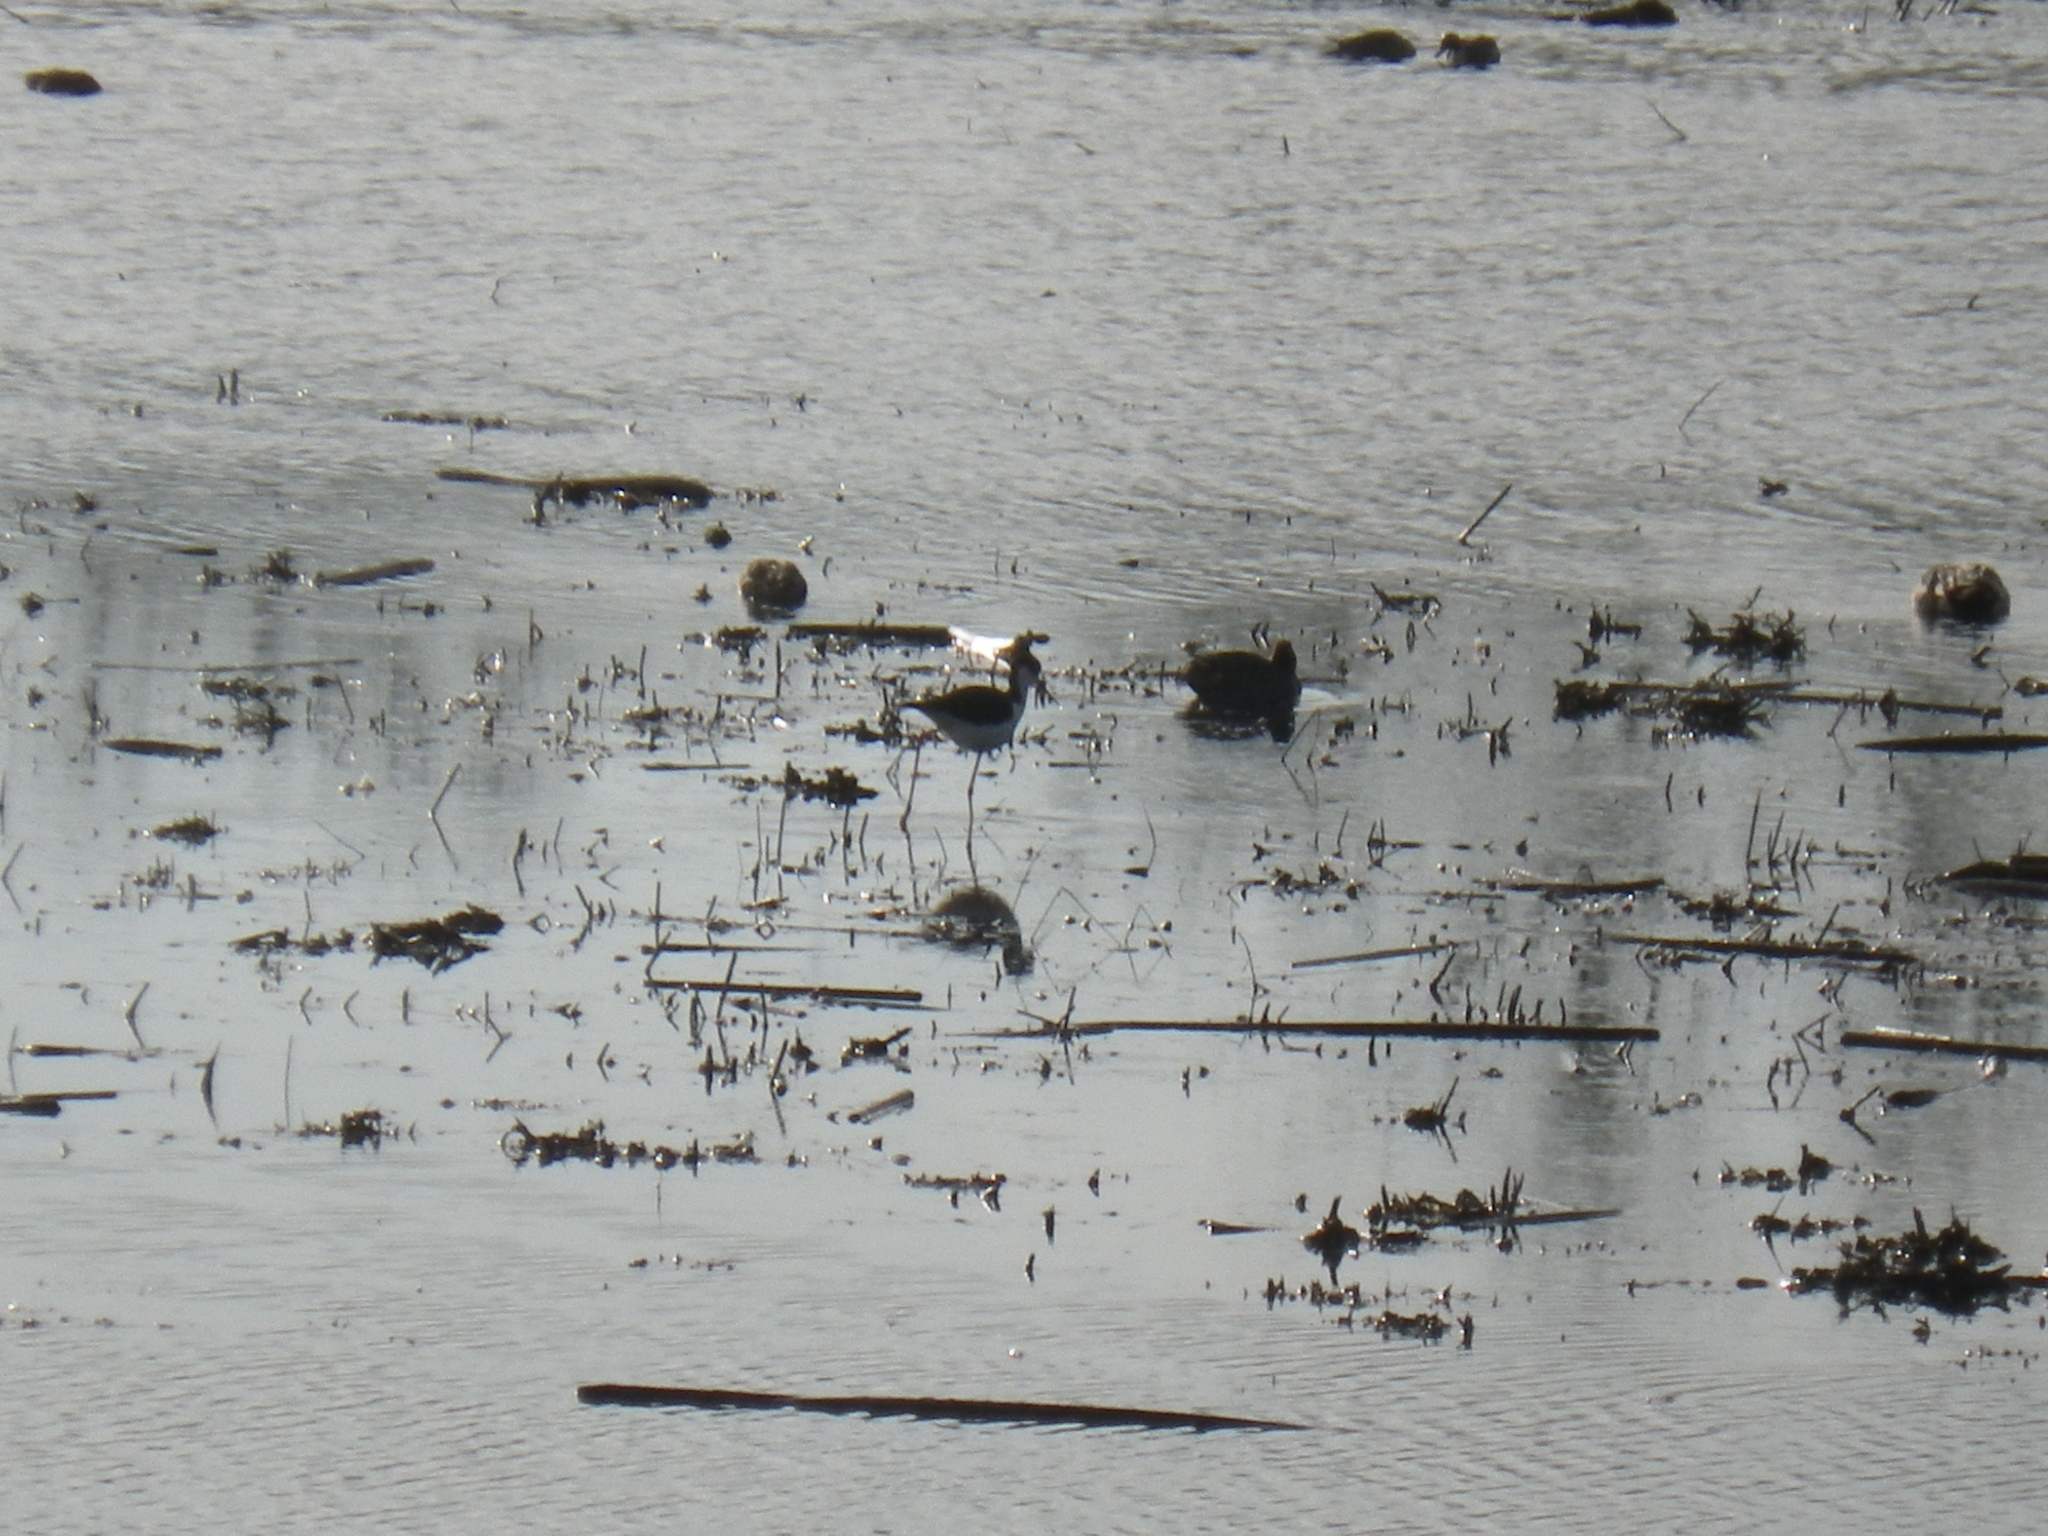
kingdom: Animalia
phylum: Chordata
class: Aves
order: Charadriiformes
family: Recurvirostridae
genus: Himantopus
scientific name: Himantopus mexicanus
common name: Black-necked stilt
